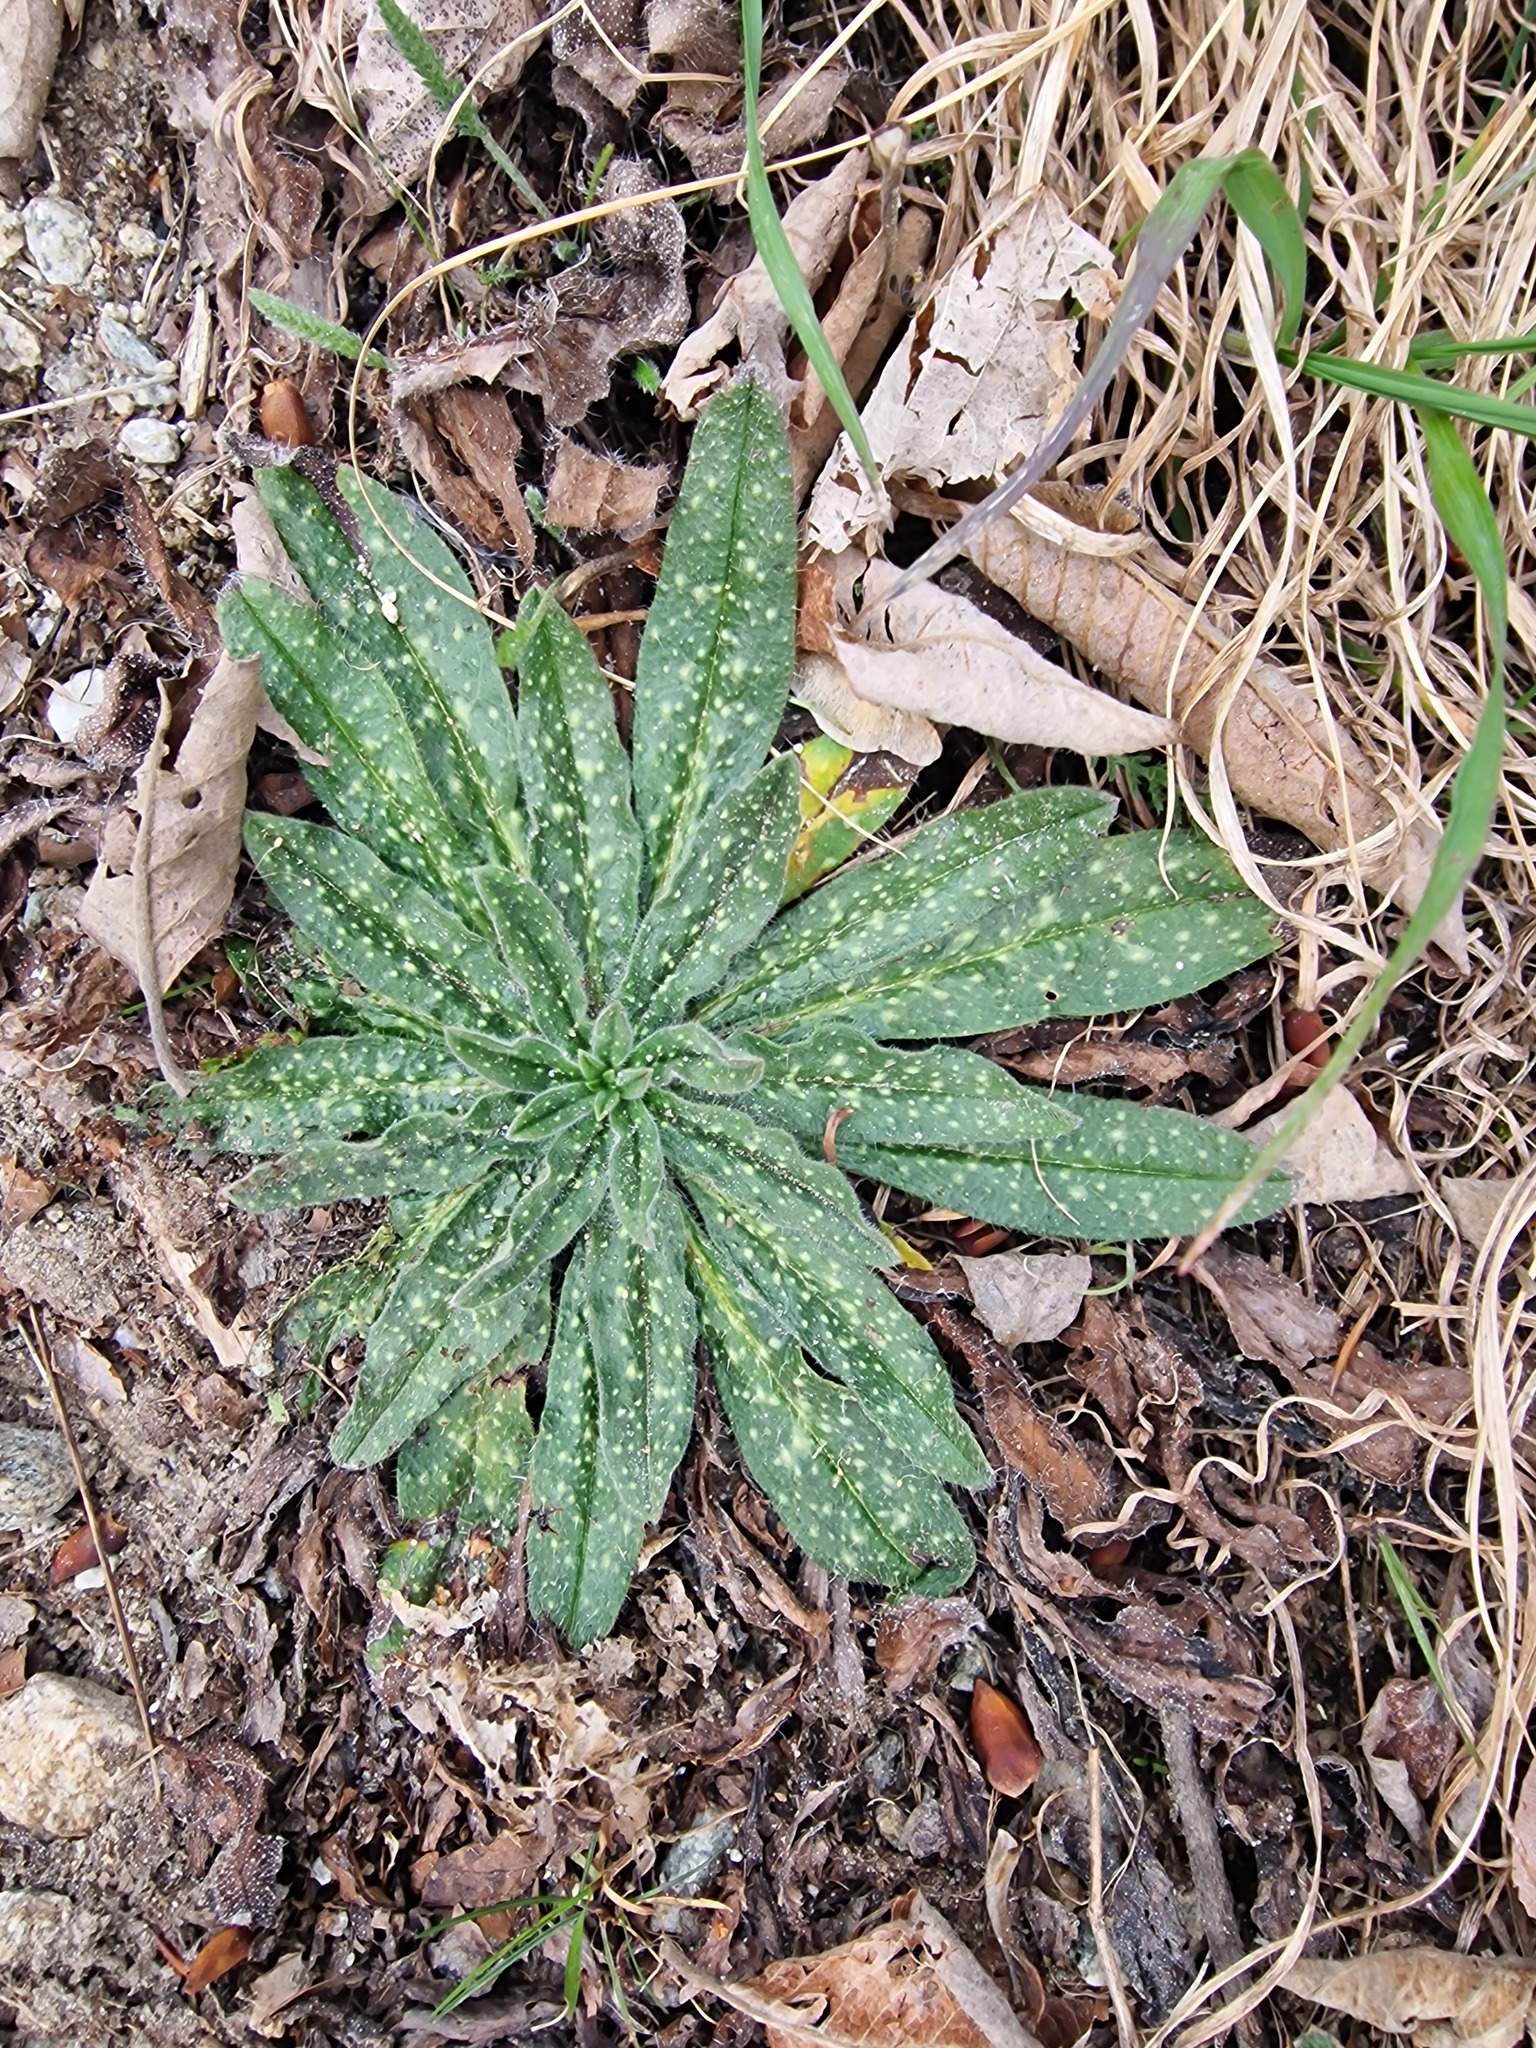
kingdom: Plantae
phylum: Tracheophyta
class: Magnoliopsida
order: Boraginales
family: Boraginaceae
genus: Echium
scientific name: Echium vulgare
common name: Common viper's bugloss
